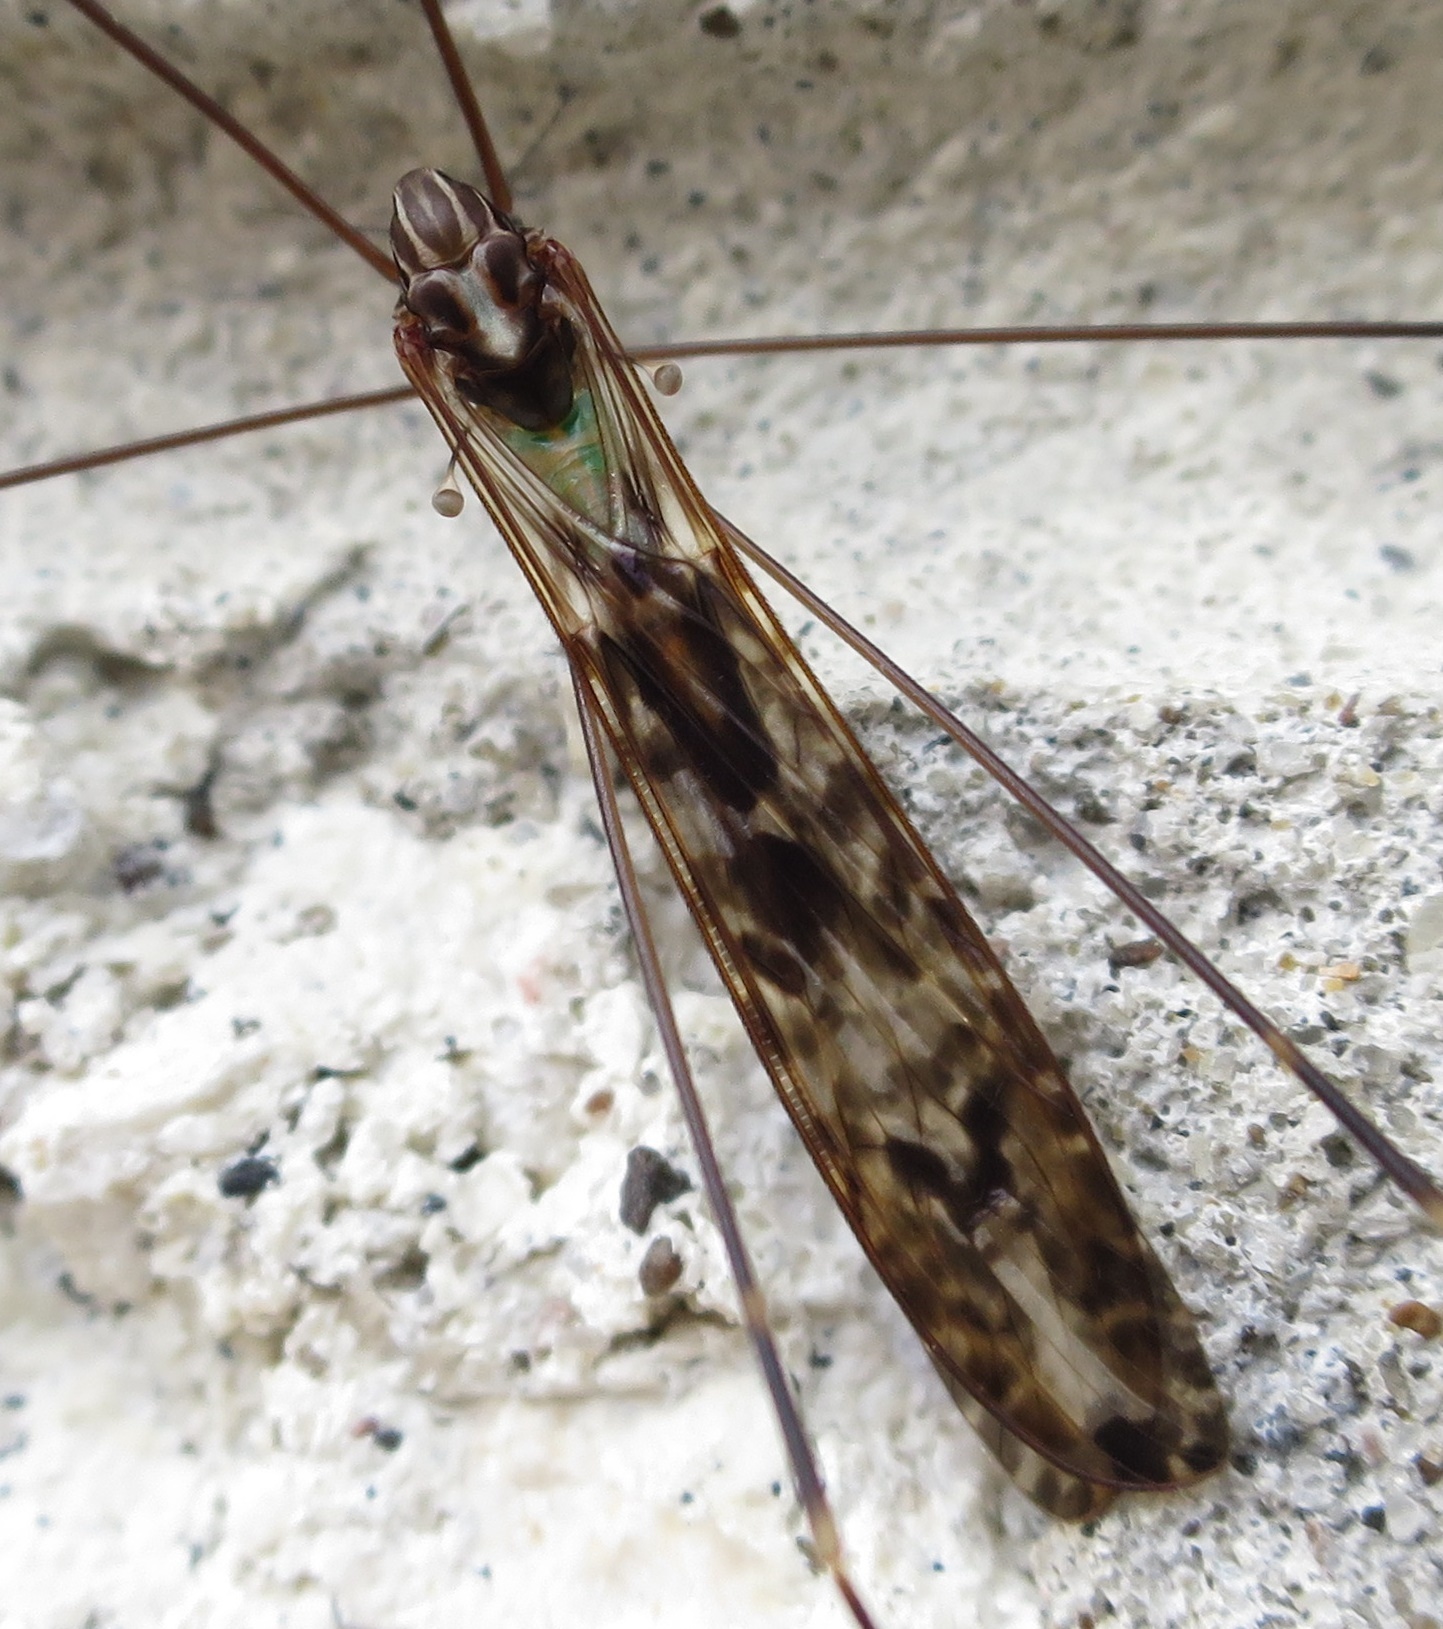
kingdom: Animalia
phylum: Arthropoda
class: Insecta
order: Diptera
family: Limoniidae
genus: Discobola
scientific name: Discobola dohrni
